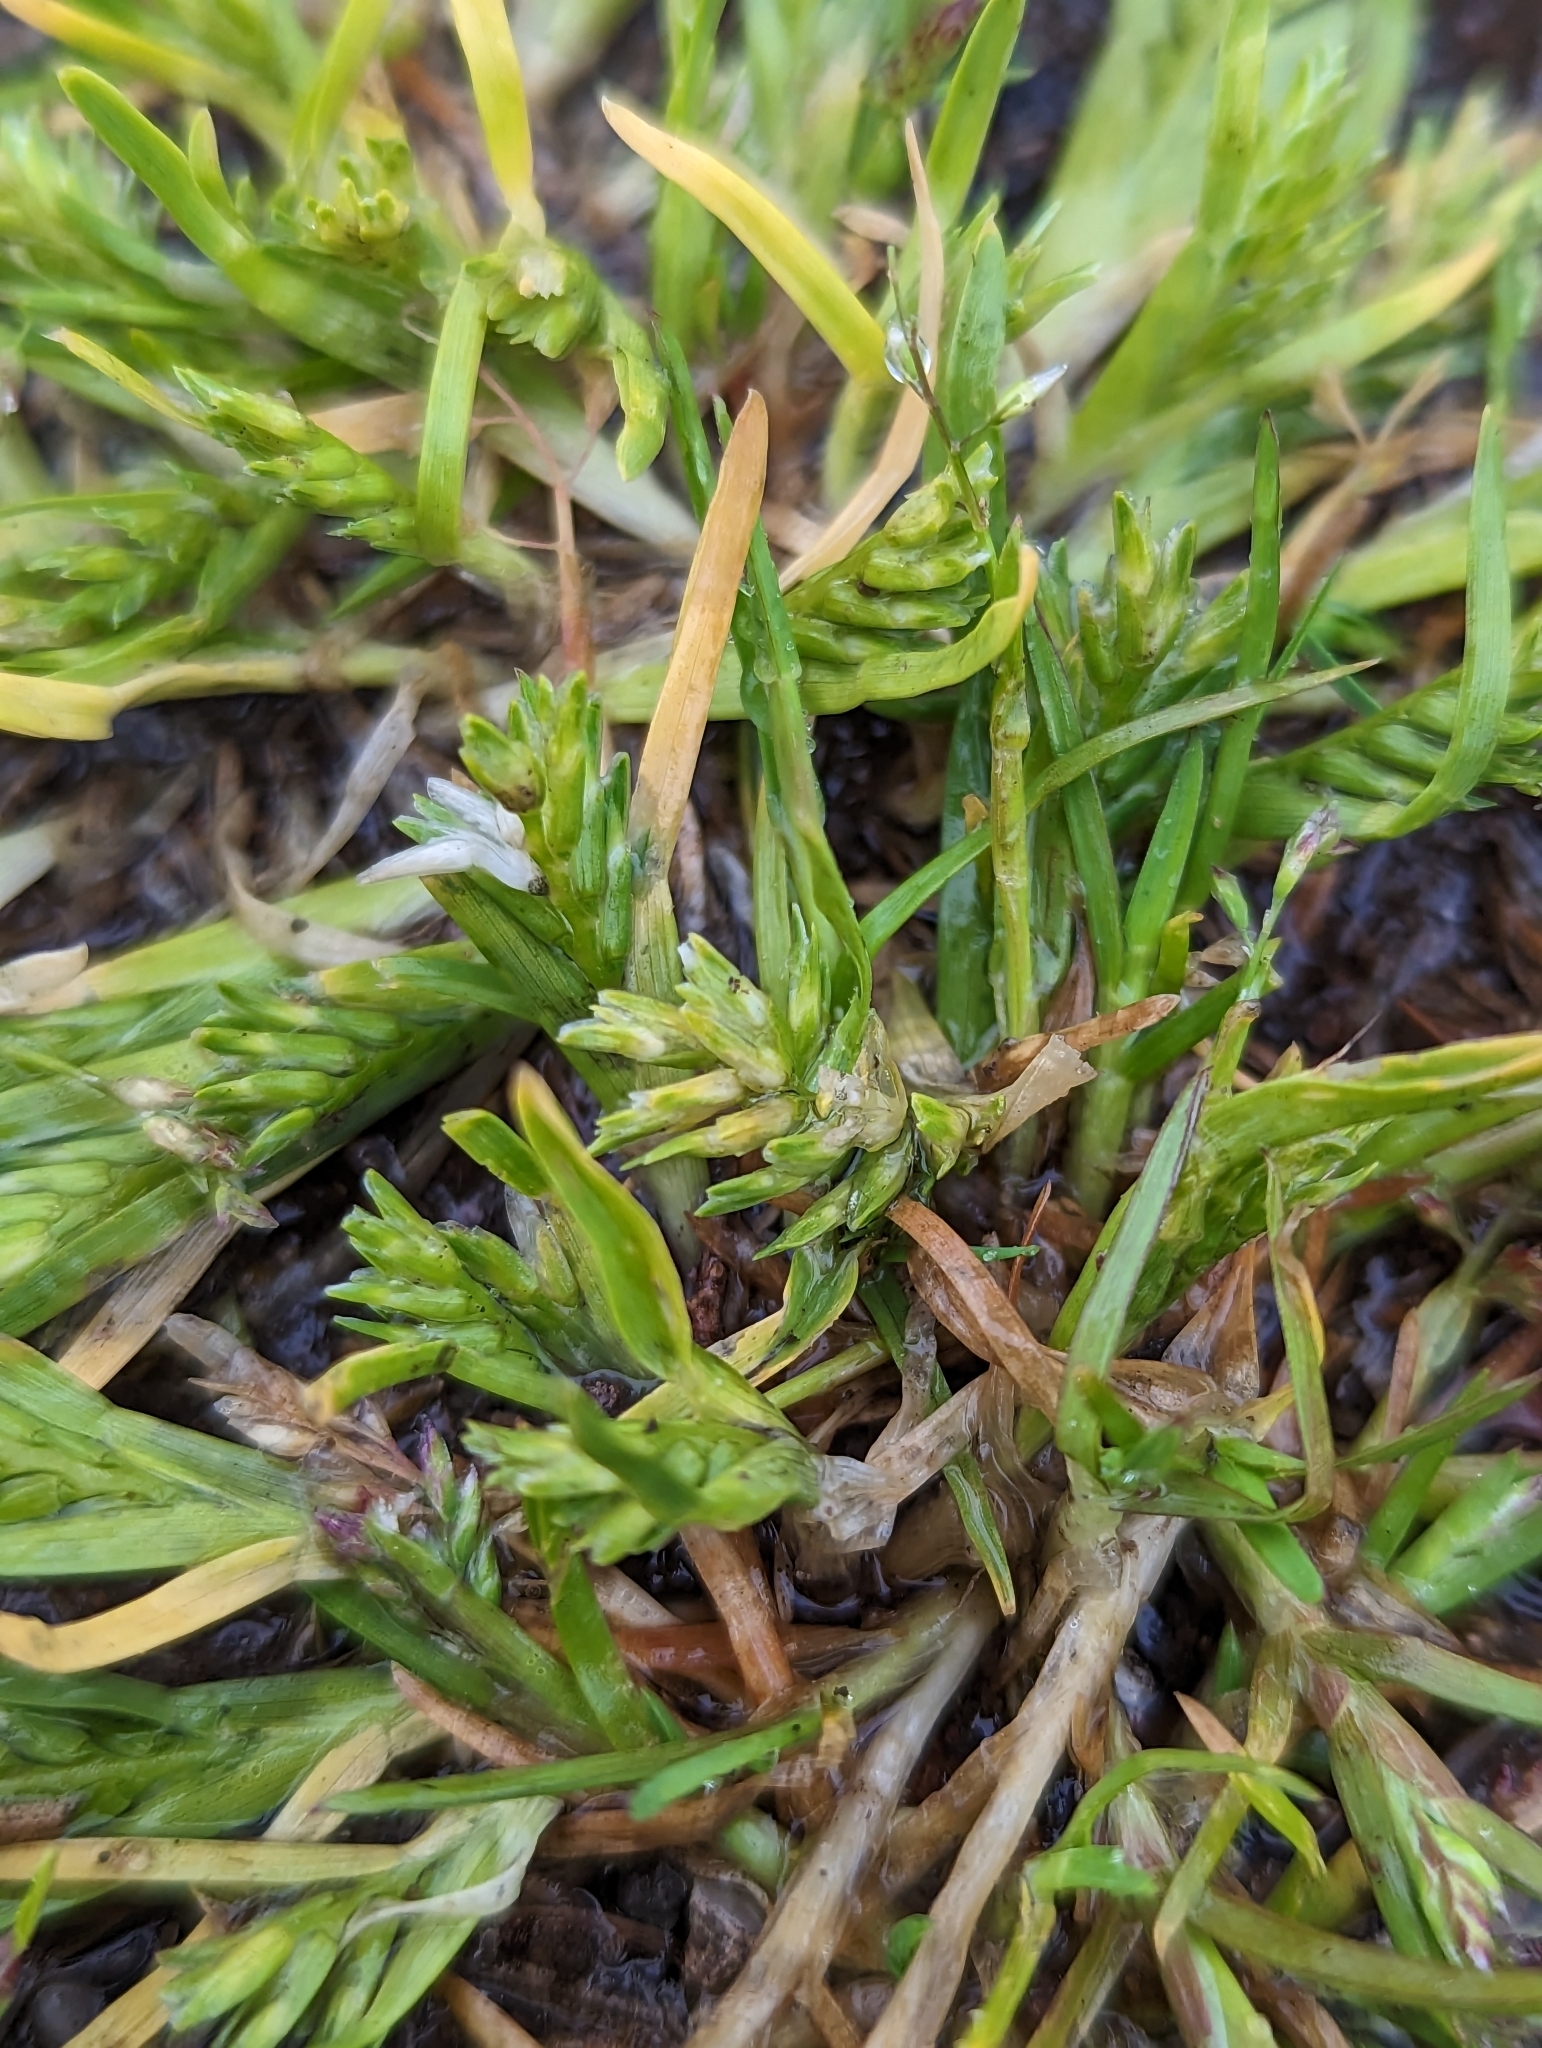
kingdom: Plantae
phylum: Tracheophyta
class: Liliopsida
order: Poales
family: Poaceae
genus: Sclerochloa
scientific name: Sclerochloa dura
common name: Common hardgrass
